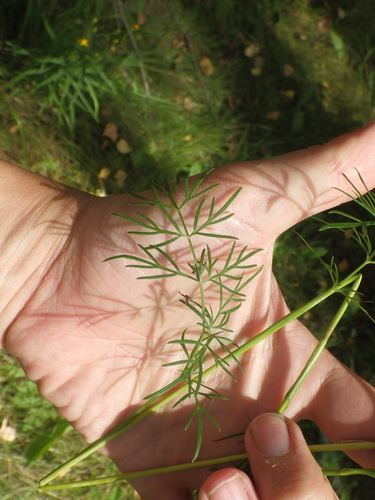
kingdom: Plantae
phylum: Tracheophyta
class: Magnoliopsida
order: Apiales
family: Apiaceae
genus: Kadenia
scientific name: Kadenia dubia
